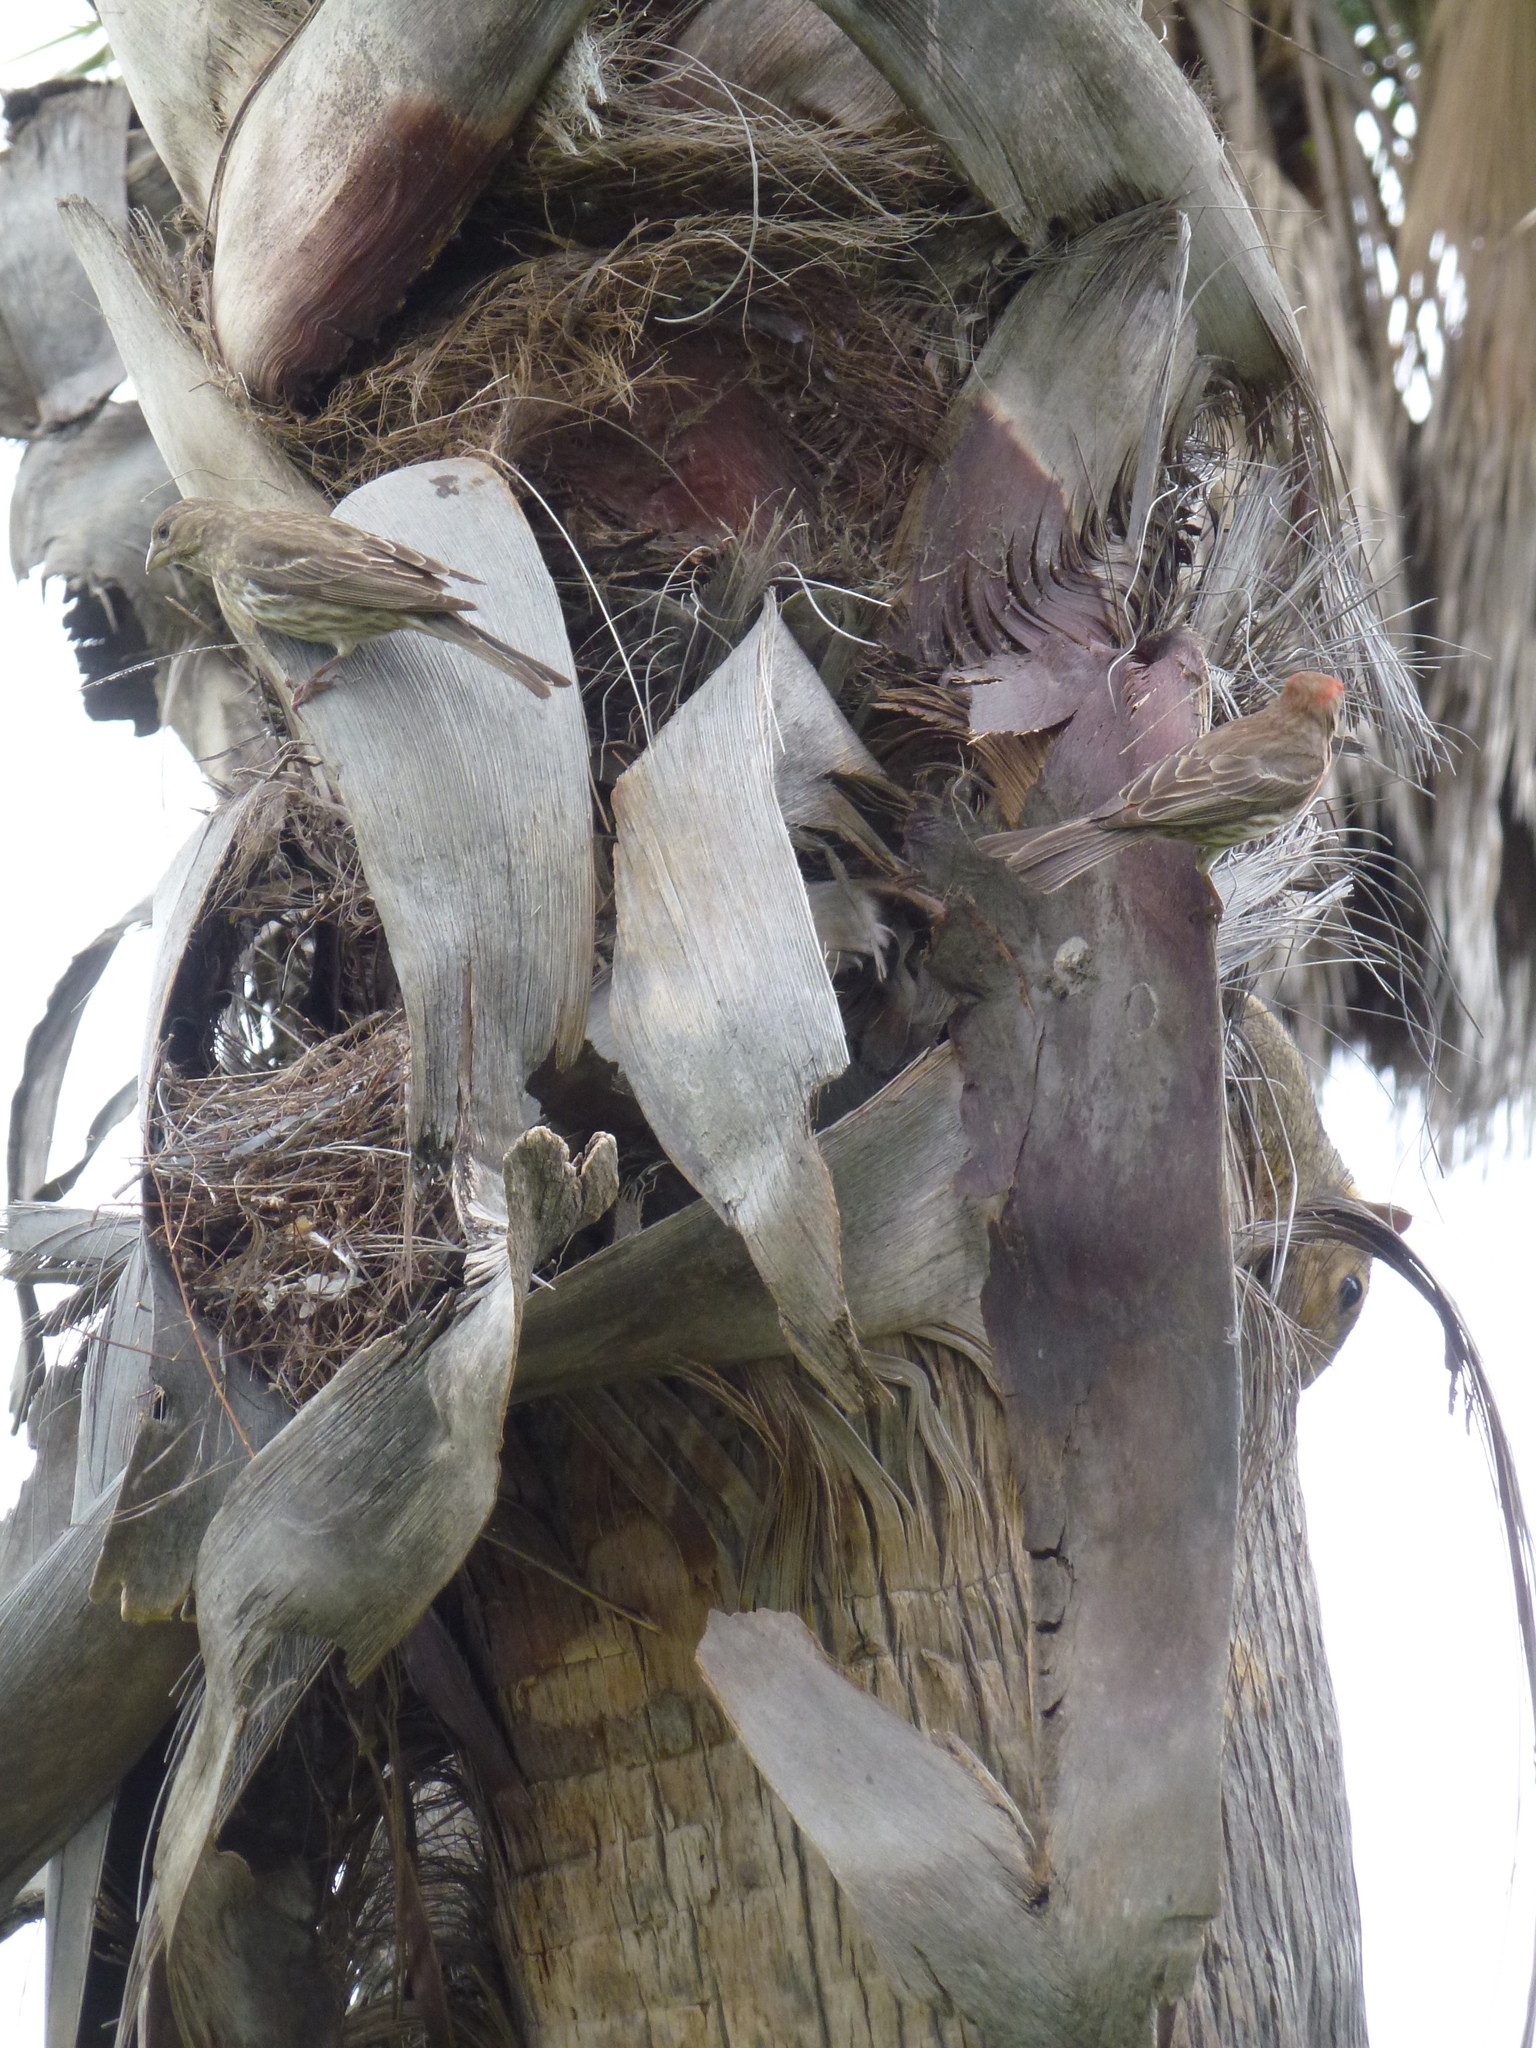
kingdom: Animalia
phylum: Chordata
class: Aves
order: Passeriformes
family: Fringillidae
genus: Haemorhous
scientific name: Haemorhous mexicanus
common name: House finch
